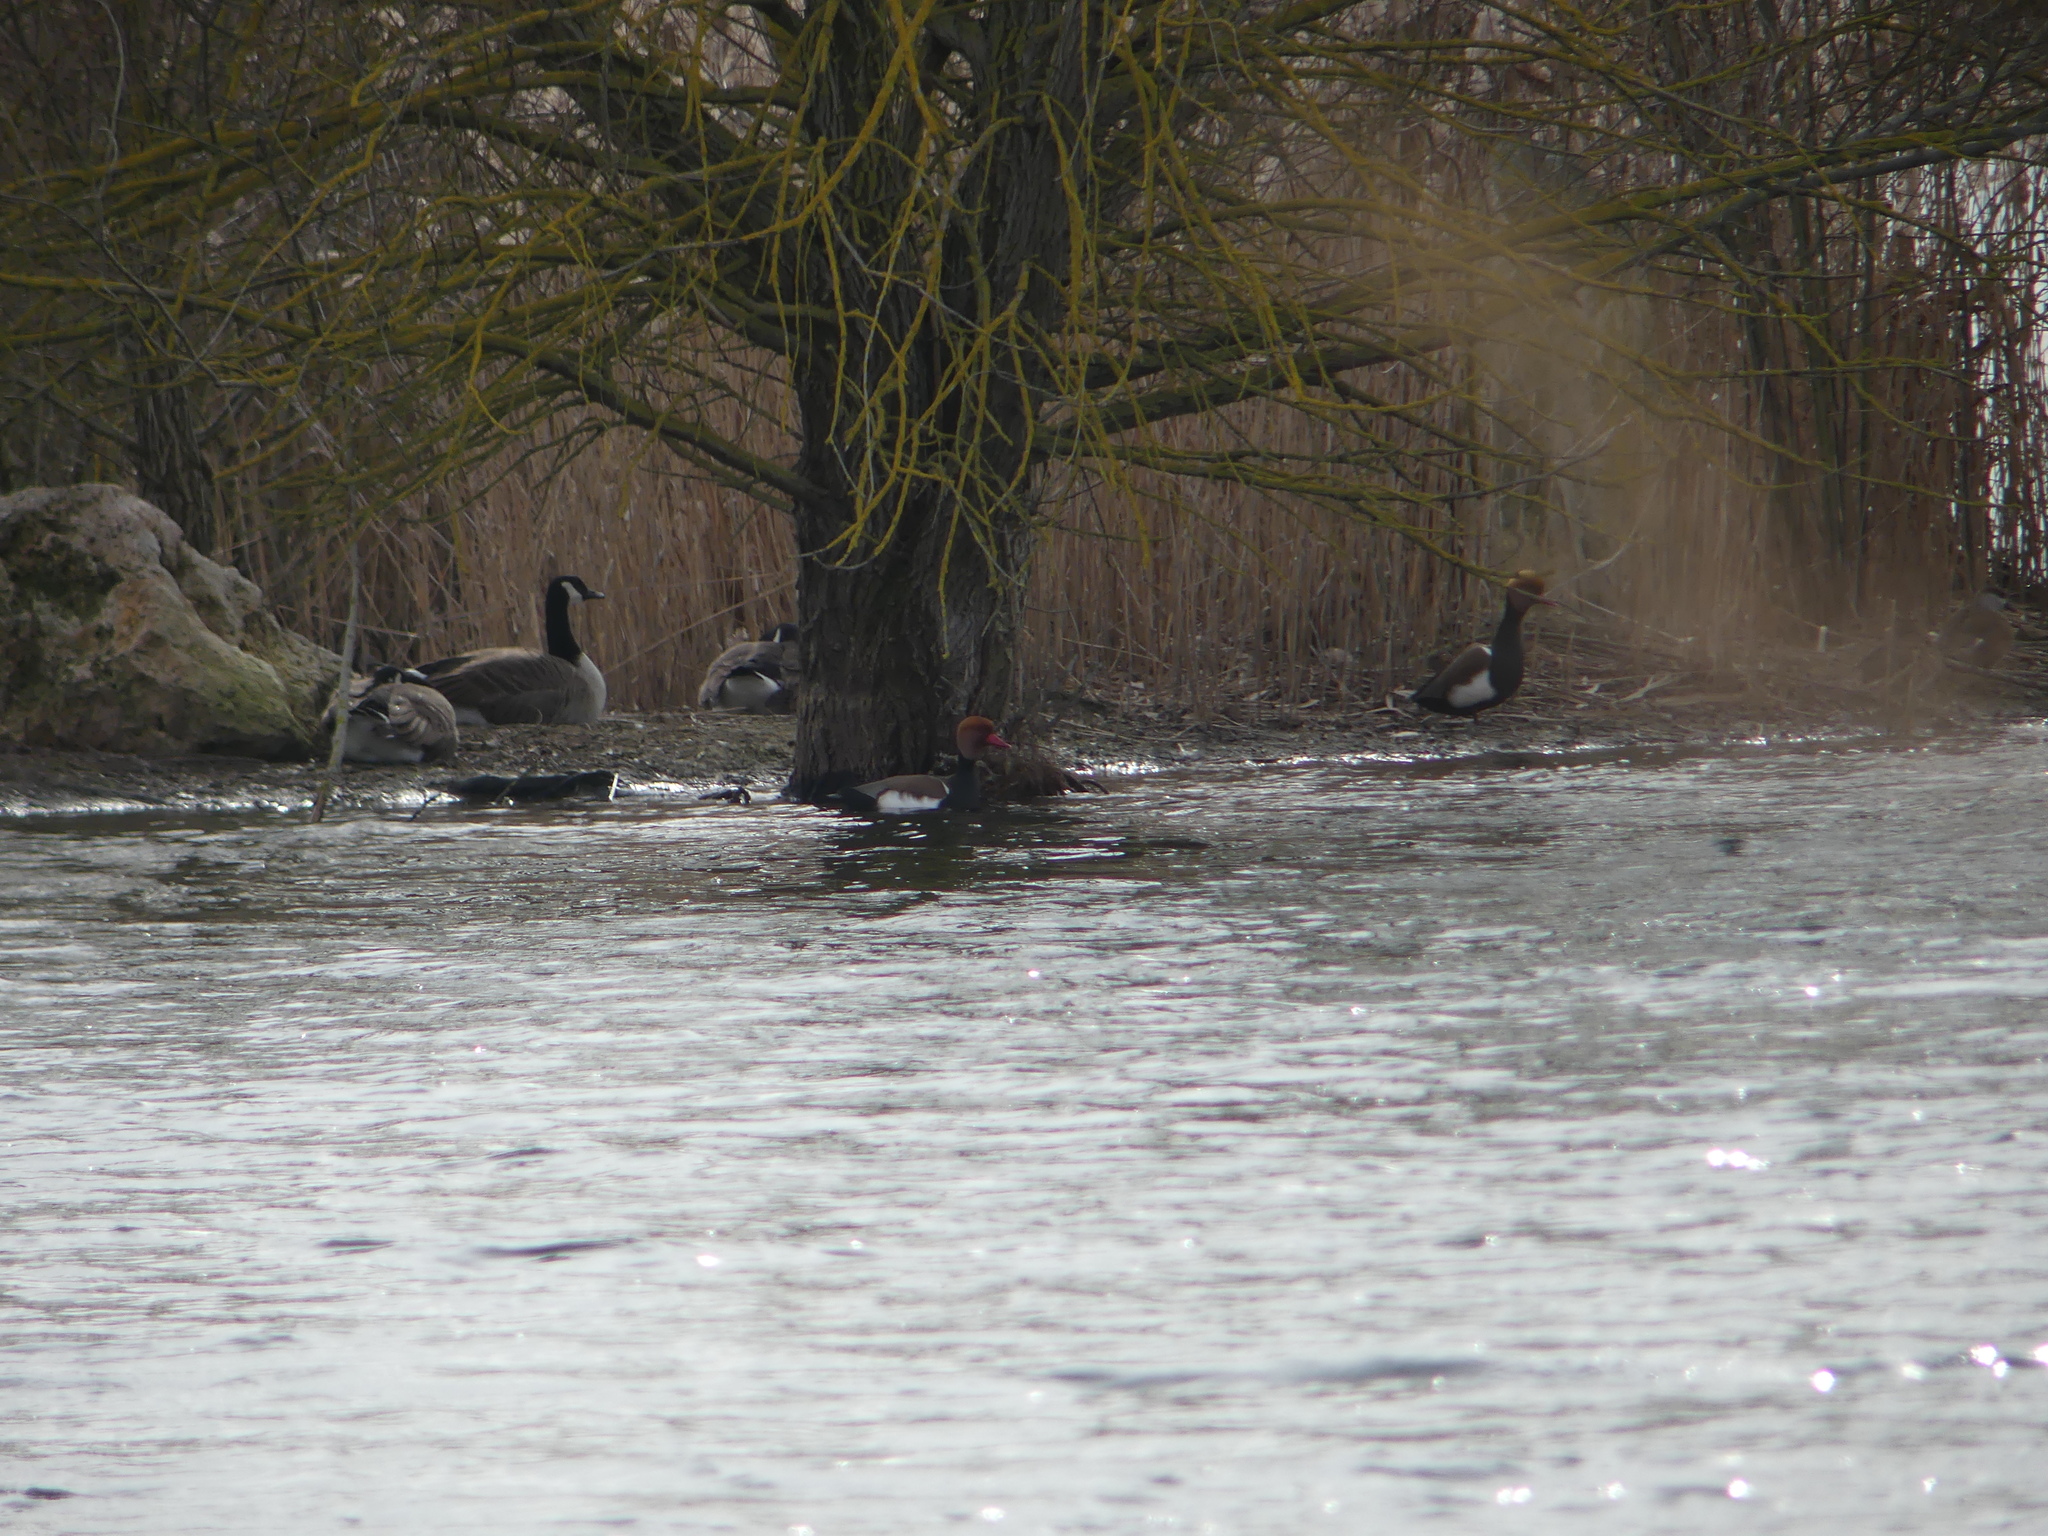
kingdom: Animalia
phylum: Chordata
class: Aves
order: Anseriformes
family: Anatidae
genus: Netta
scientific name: Netta rufina
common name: Red-crested pochard
